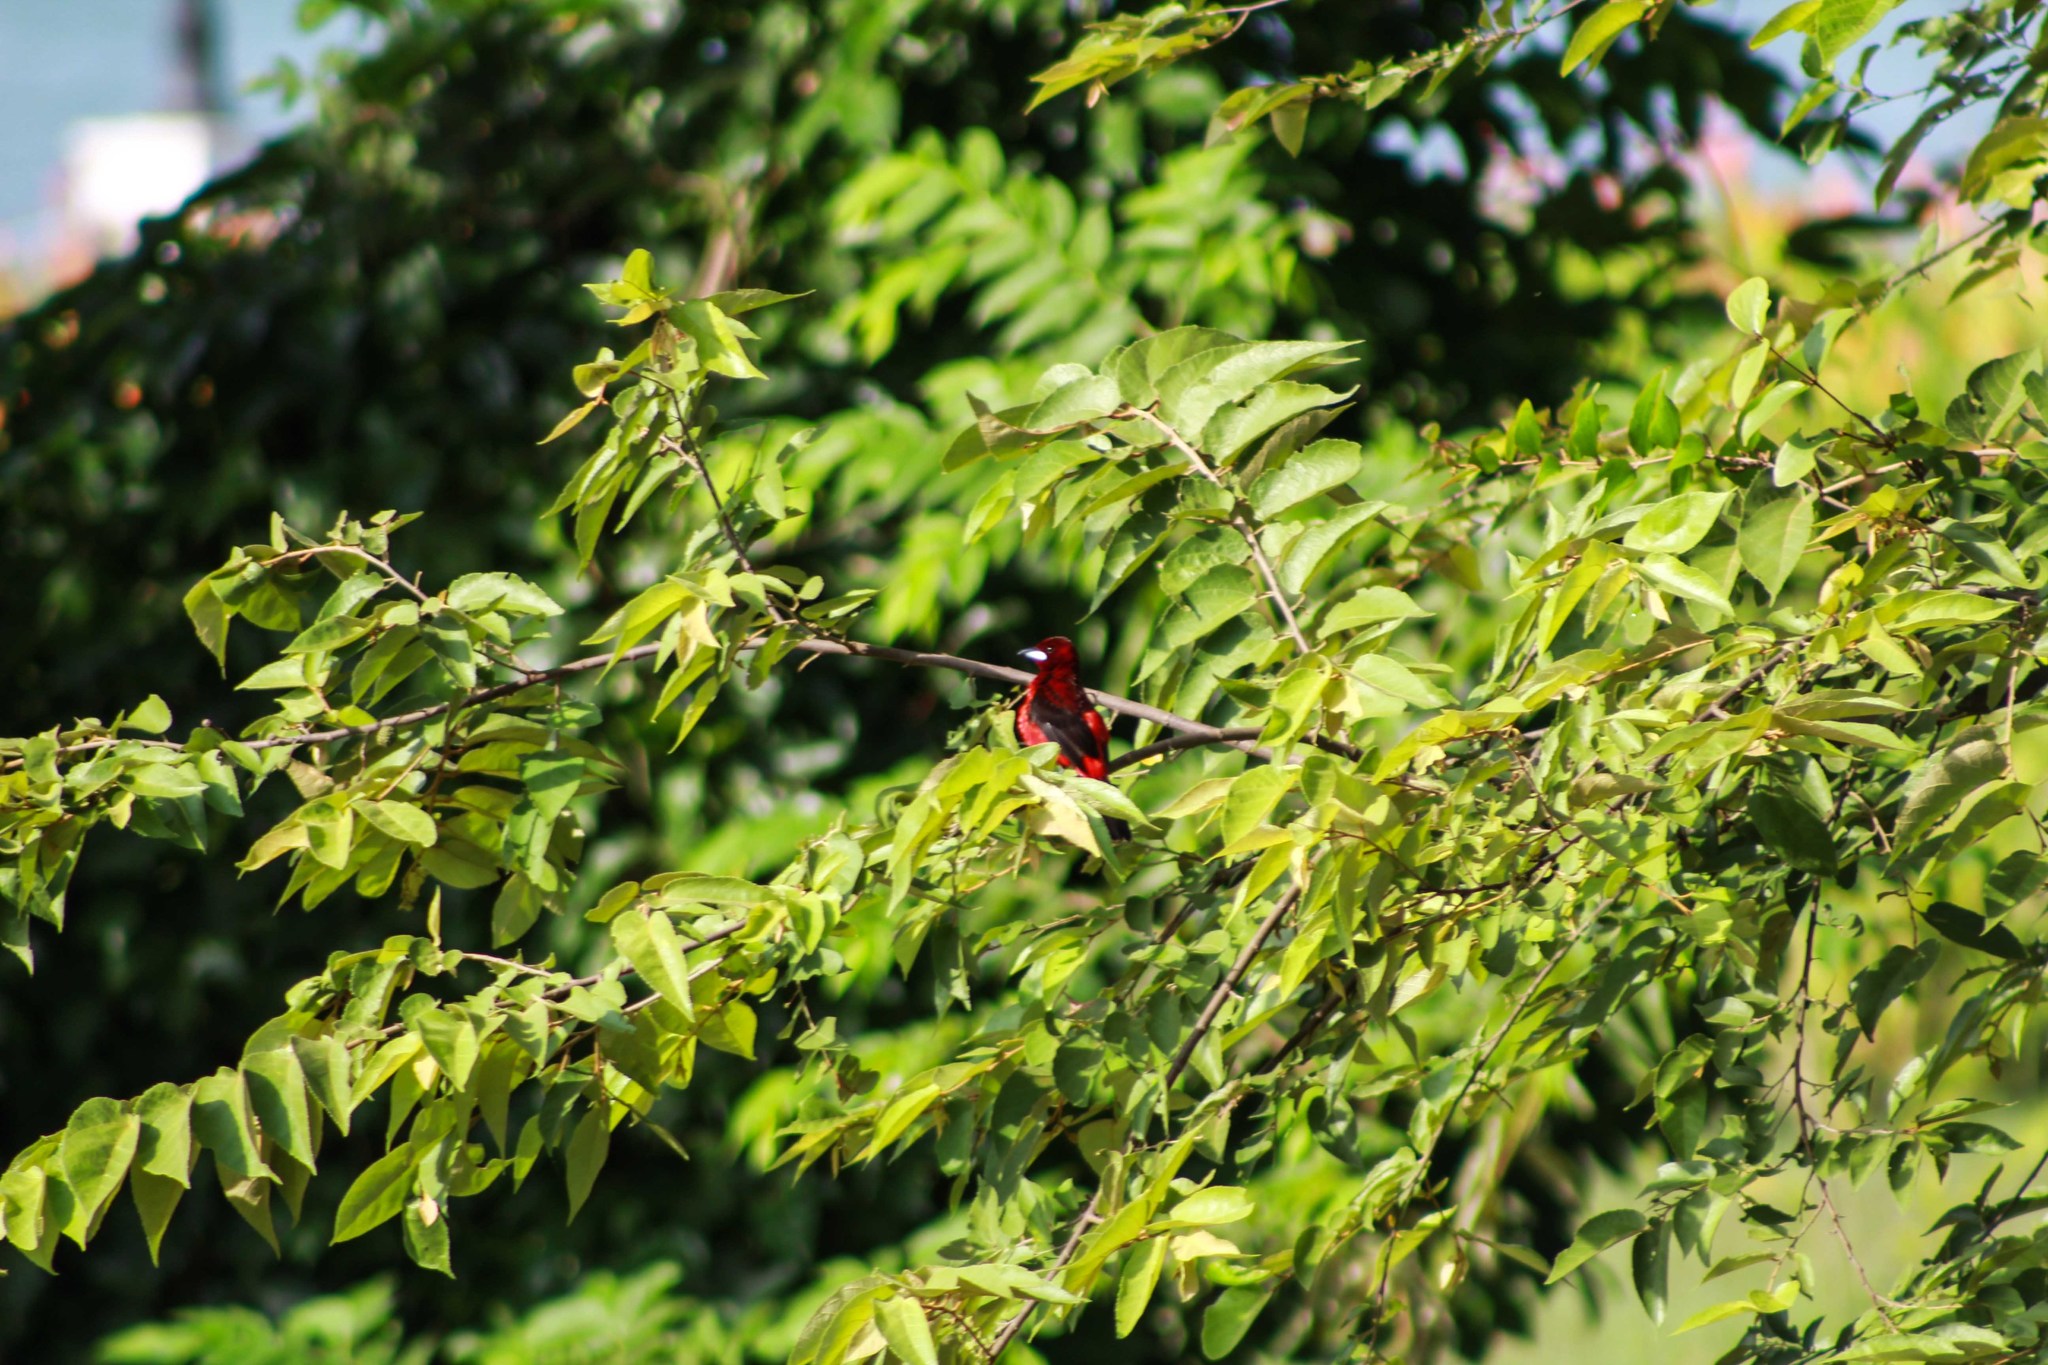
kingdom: Animalia
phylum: Chordata
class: Aves
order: Passeriformes
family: Thraupidae
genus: Ramphocelus
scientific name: Ramphocelus dimidiatus
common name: Crimson-backed tanager
